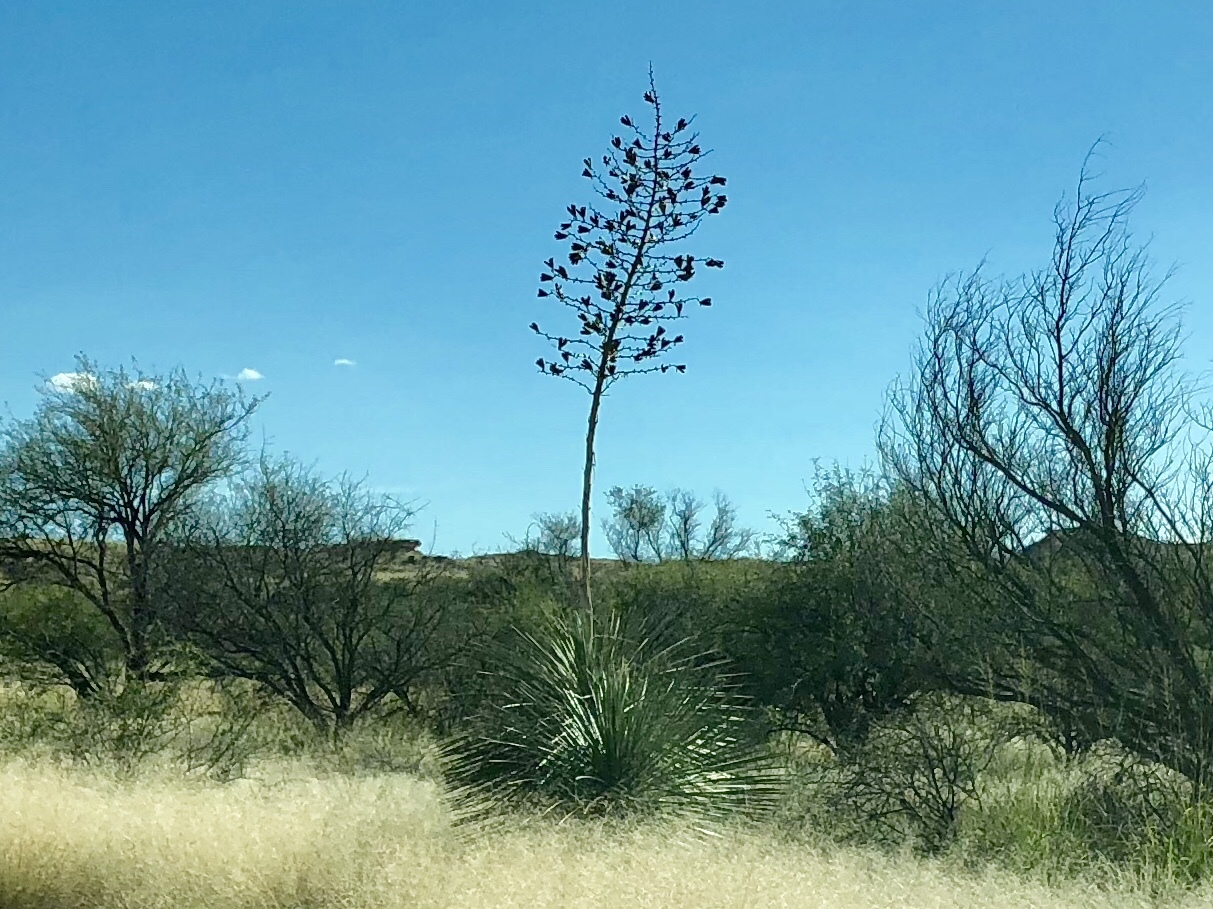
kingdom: Plantae
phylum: Tracheophyta
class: Liliopsida
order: Asparagales
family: Asparagaceae
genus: Yucca
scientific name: Yucca elata
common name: Palmella
